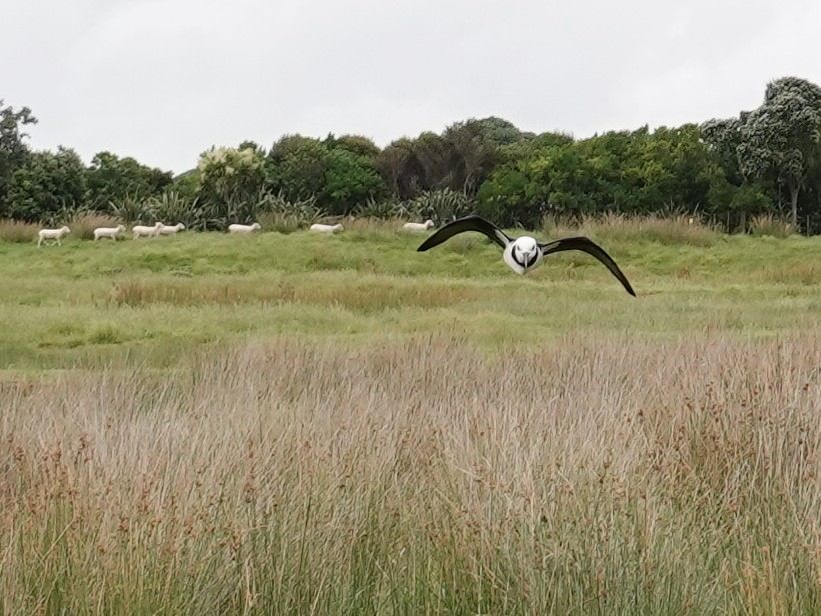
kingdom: Animalia
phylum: Chordata
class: Aves
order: Charadriiformes
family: Recurvirostridae
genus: Himantopus
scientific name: Himantopus leucocephalus
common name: White-headed stilt
